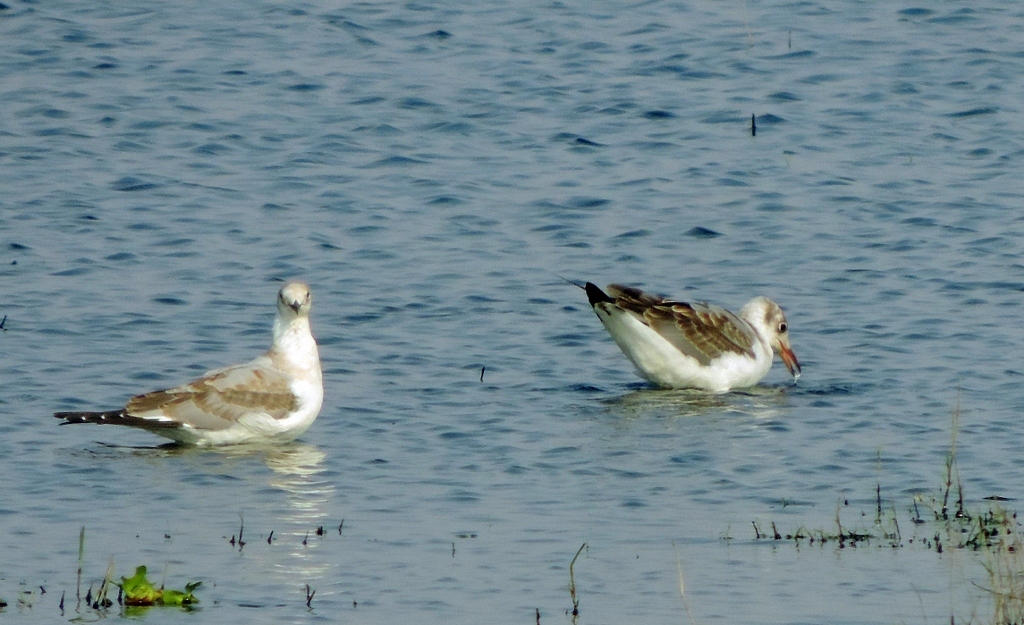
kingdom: Animalia
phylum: Chordata
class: Aves
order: Charadriiformes
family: Laridae
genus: Chroicocephalus
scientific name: Chroicocephalus cirrocephalus
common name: Grey-headed gull
